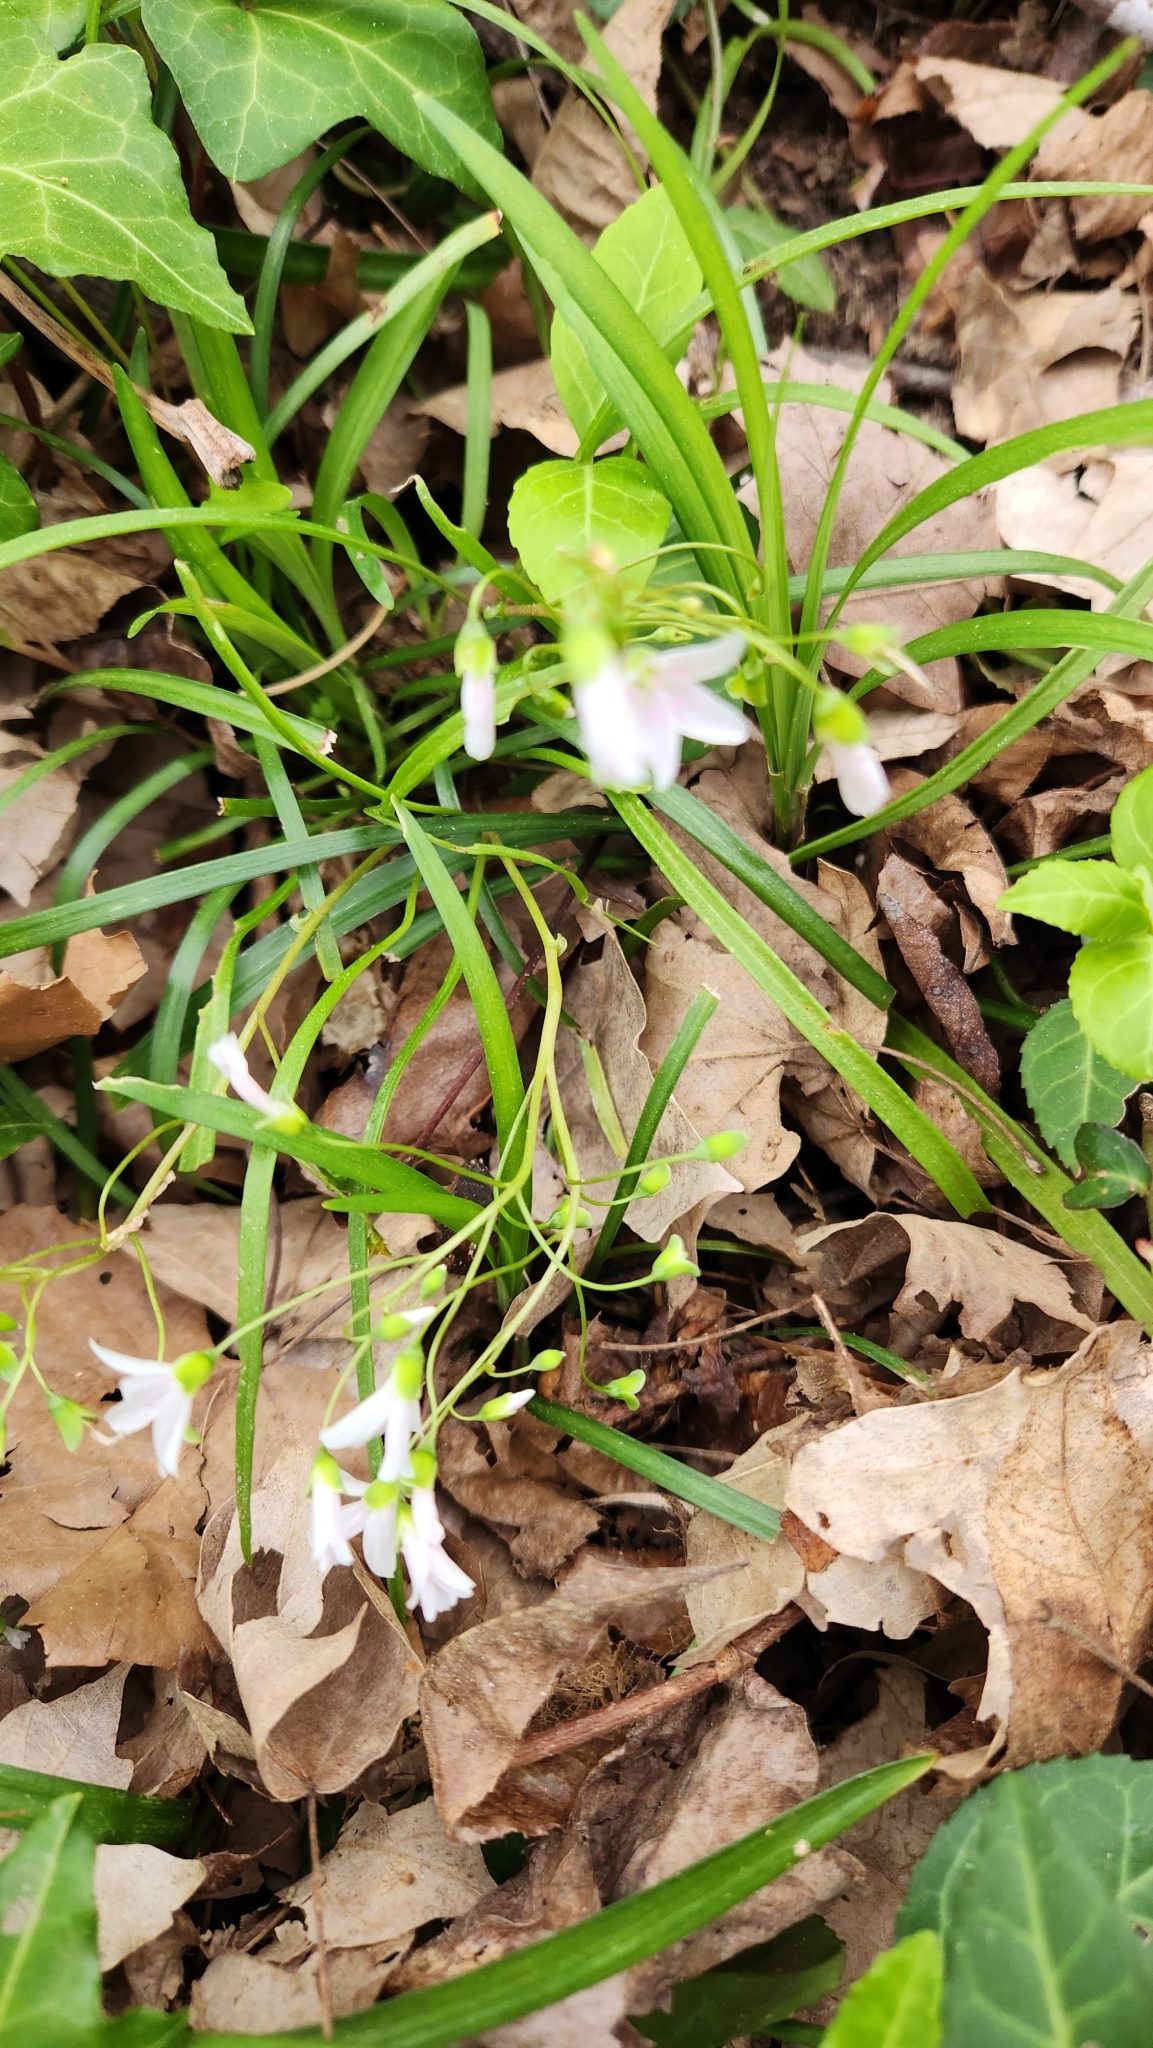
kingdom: Plantae
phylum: Tracheophyta
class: Magnoliopsida
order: Caryophyllales
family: Montiaceae
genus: Claytonia
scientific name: Claytonia virginica
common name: Virginia springbeauty
